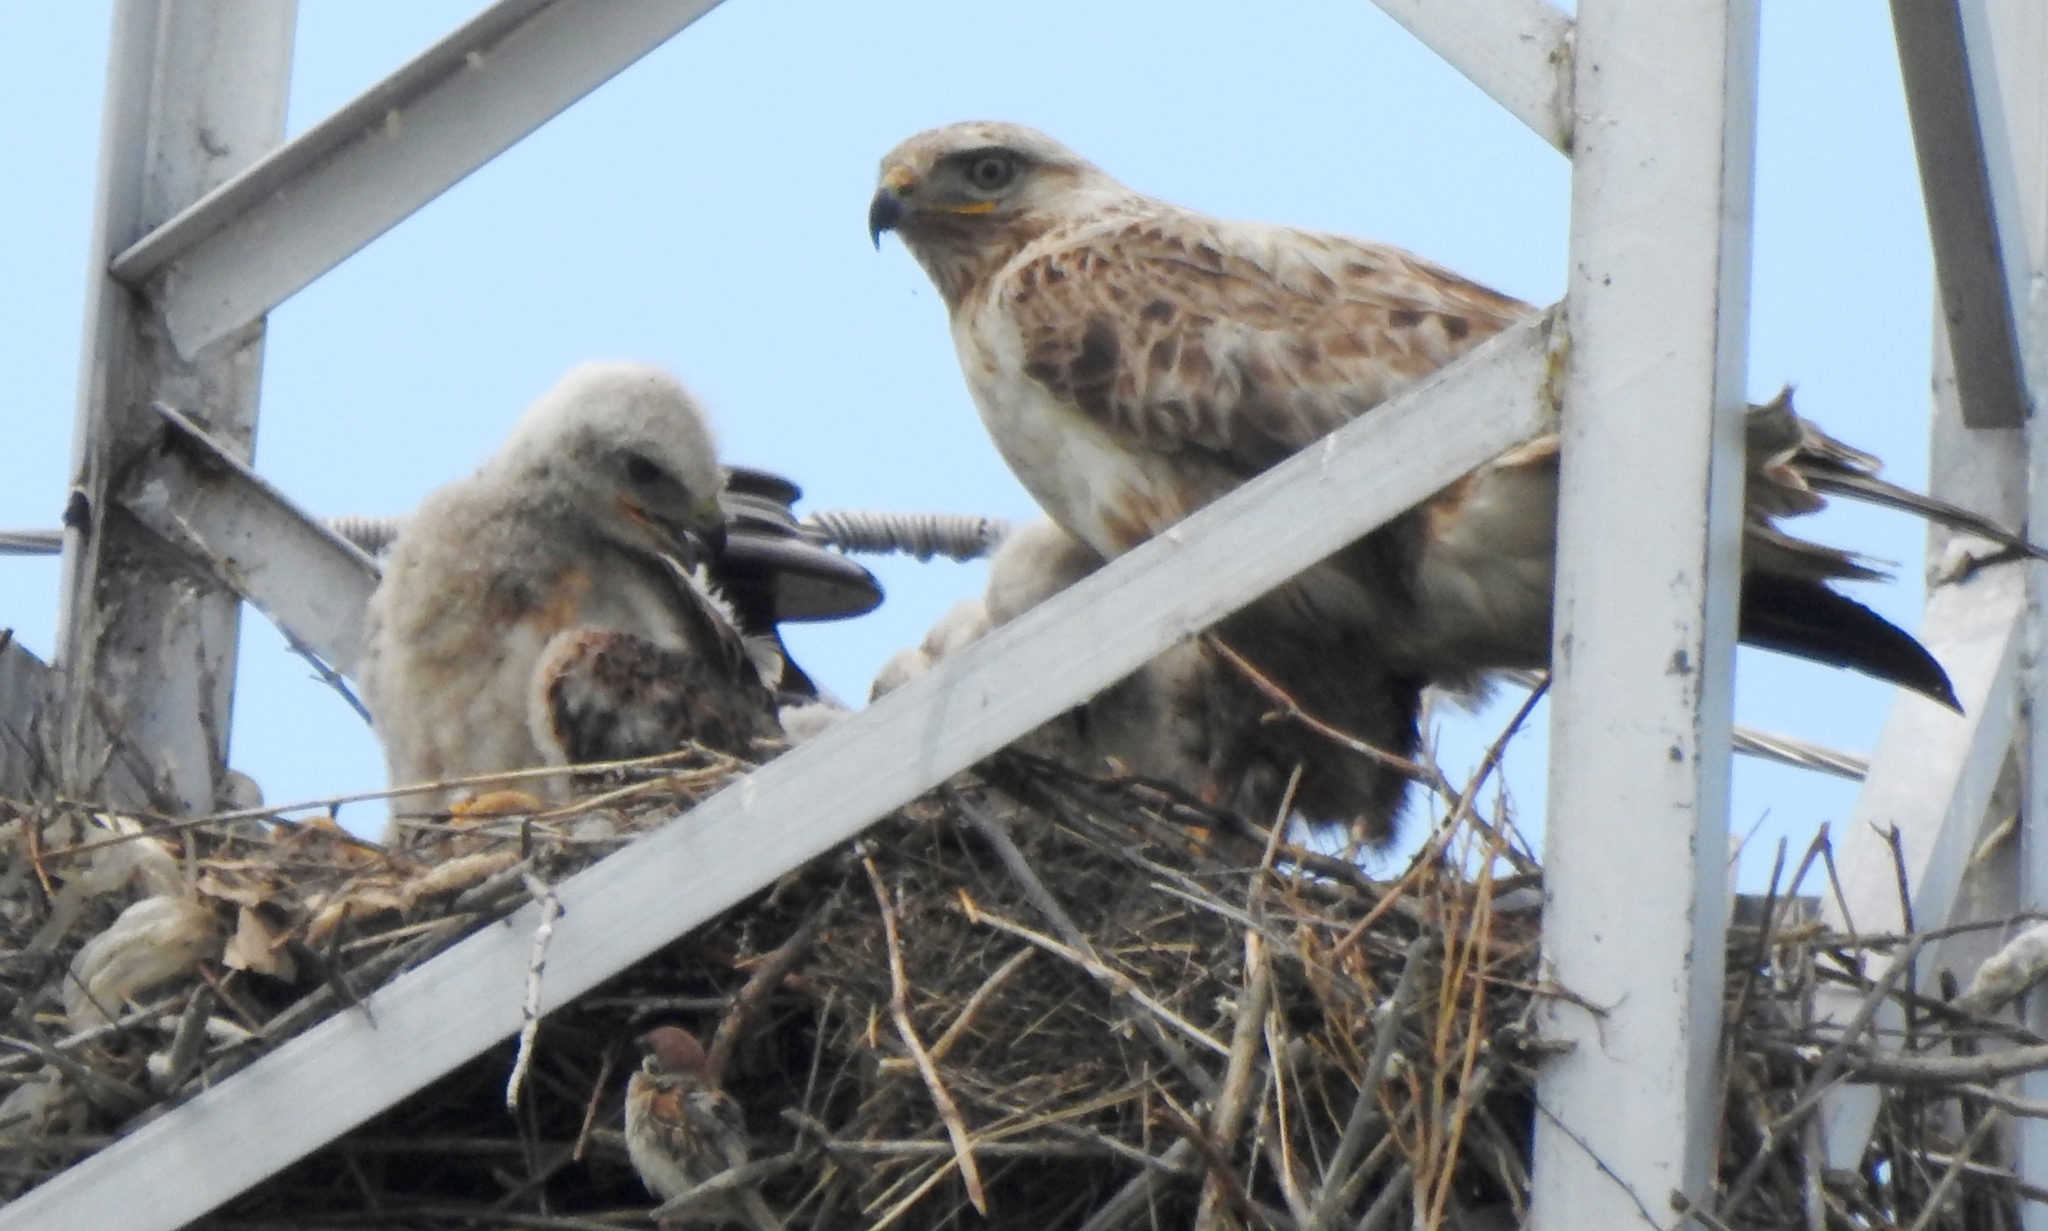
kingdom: Animalia
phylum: Chordata
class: Aves
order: Accipitriformes
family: Accipitridae
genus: Buteo
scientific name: Buteo hemilasius
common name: Upland buzzard
